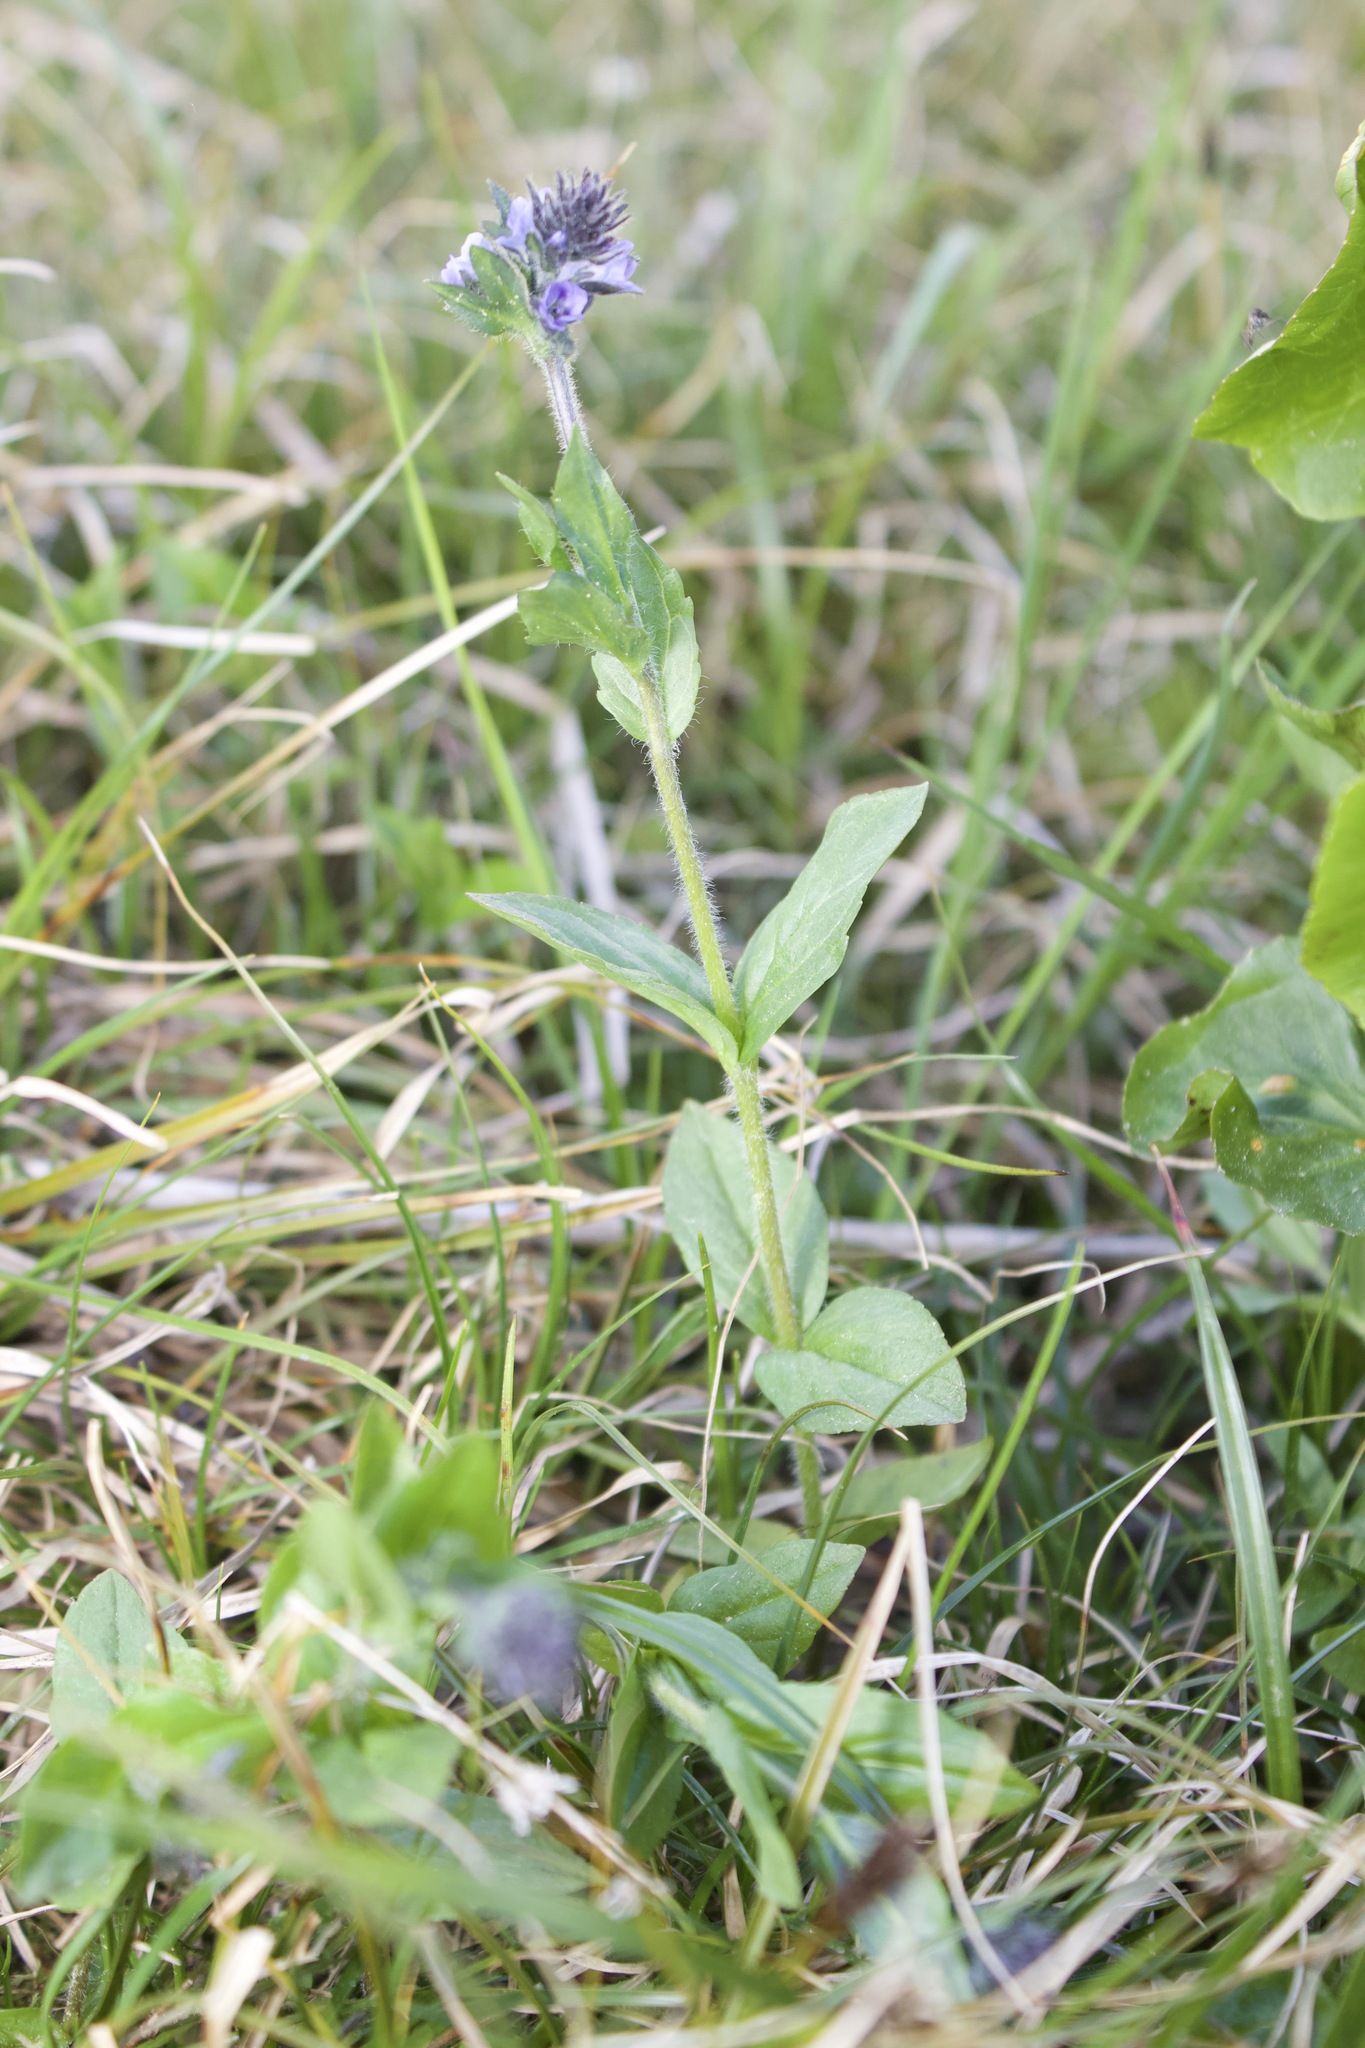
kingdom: Plantae
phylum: Tracheophyta
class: Magnoliopsida
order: Lamiales
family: Plantaginaceae
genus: Veronica
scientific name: Veronica wormskjoldii
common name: American alpine speedwell
